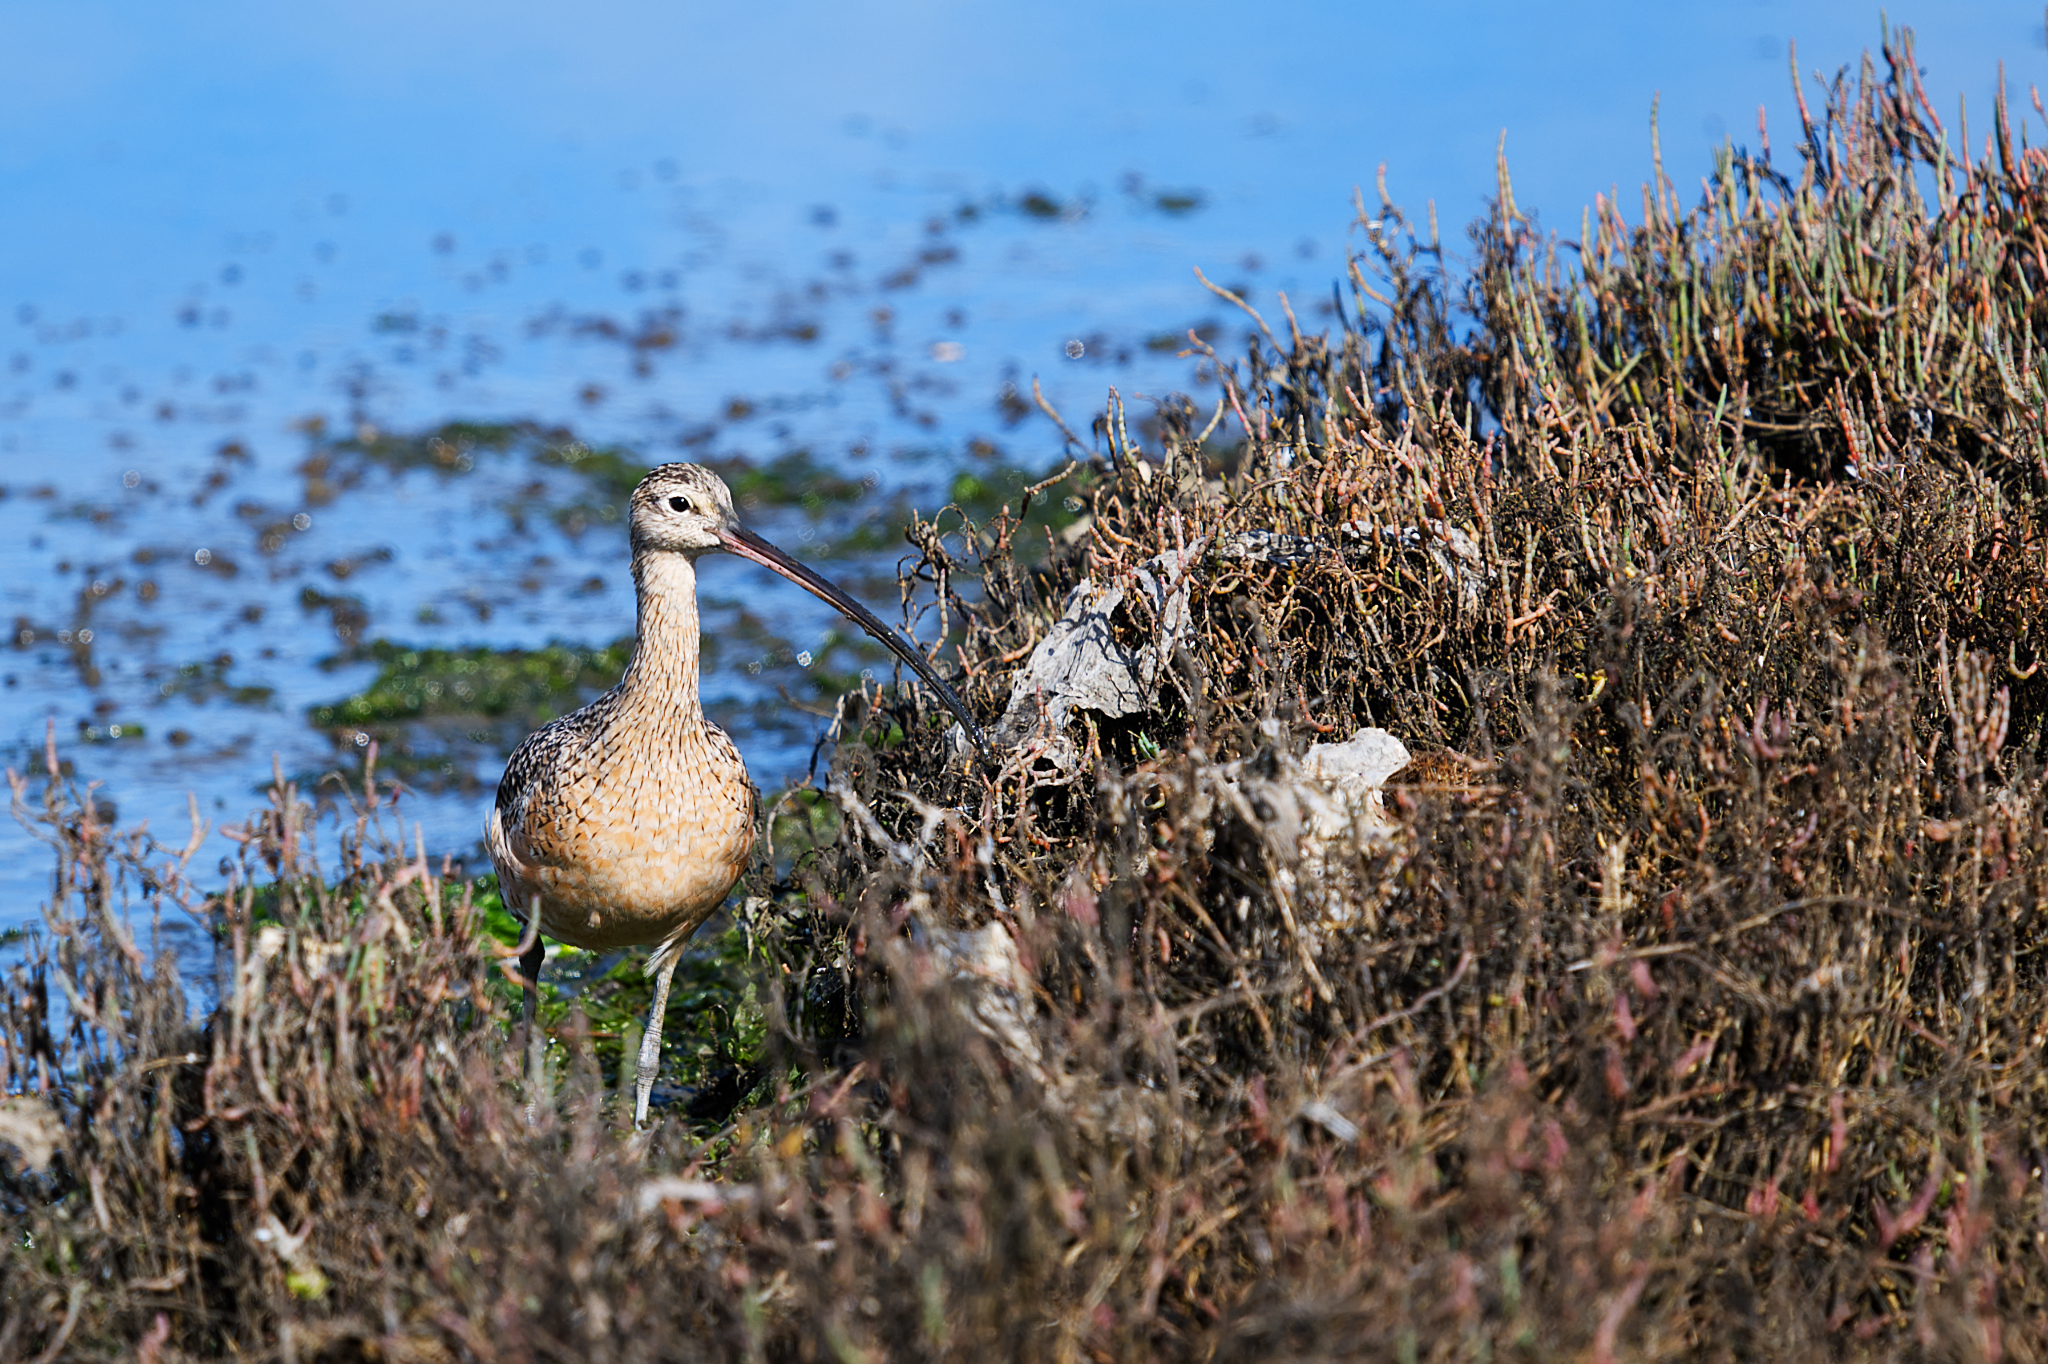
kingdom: Animalia
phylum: Chordata
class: Aves
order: Charadriiformes
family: Scolopacidae
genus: Numenius
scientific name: Numenius americanus
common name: Long-billed curlew
